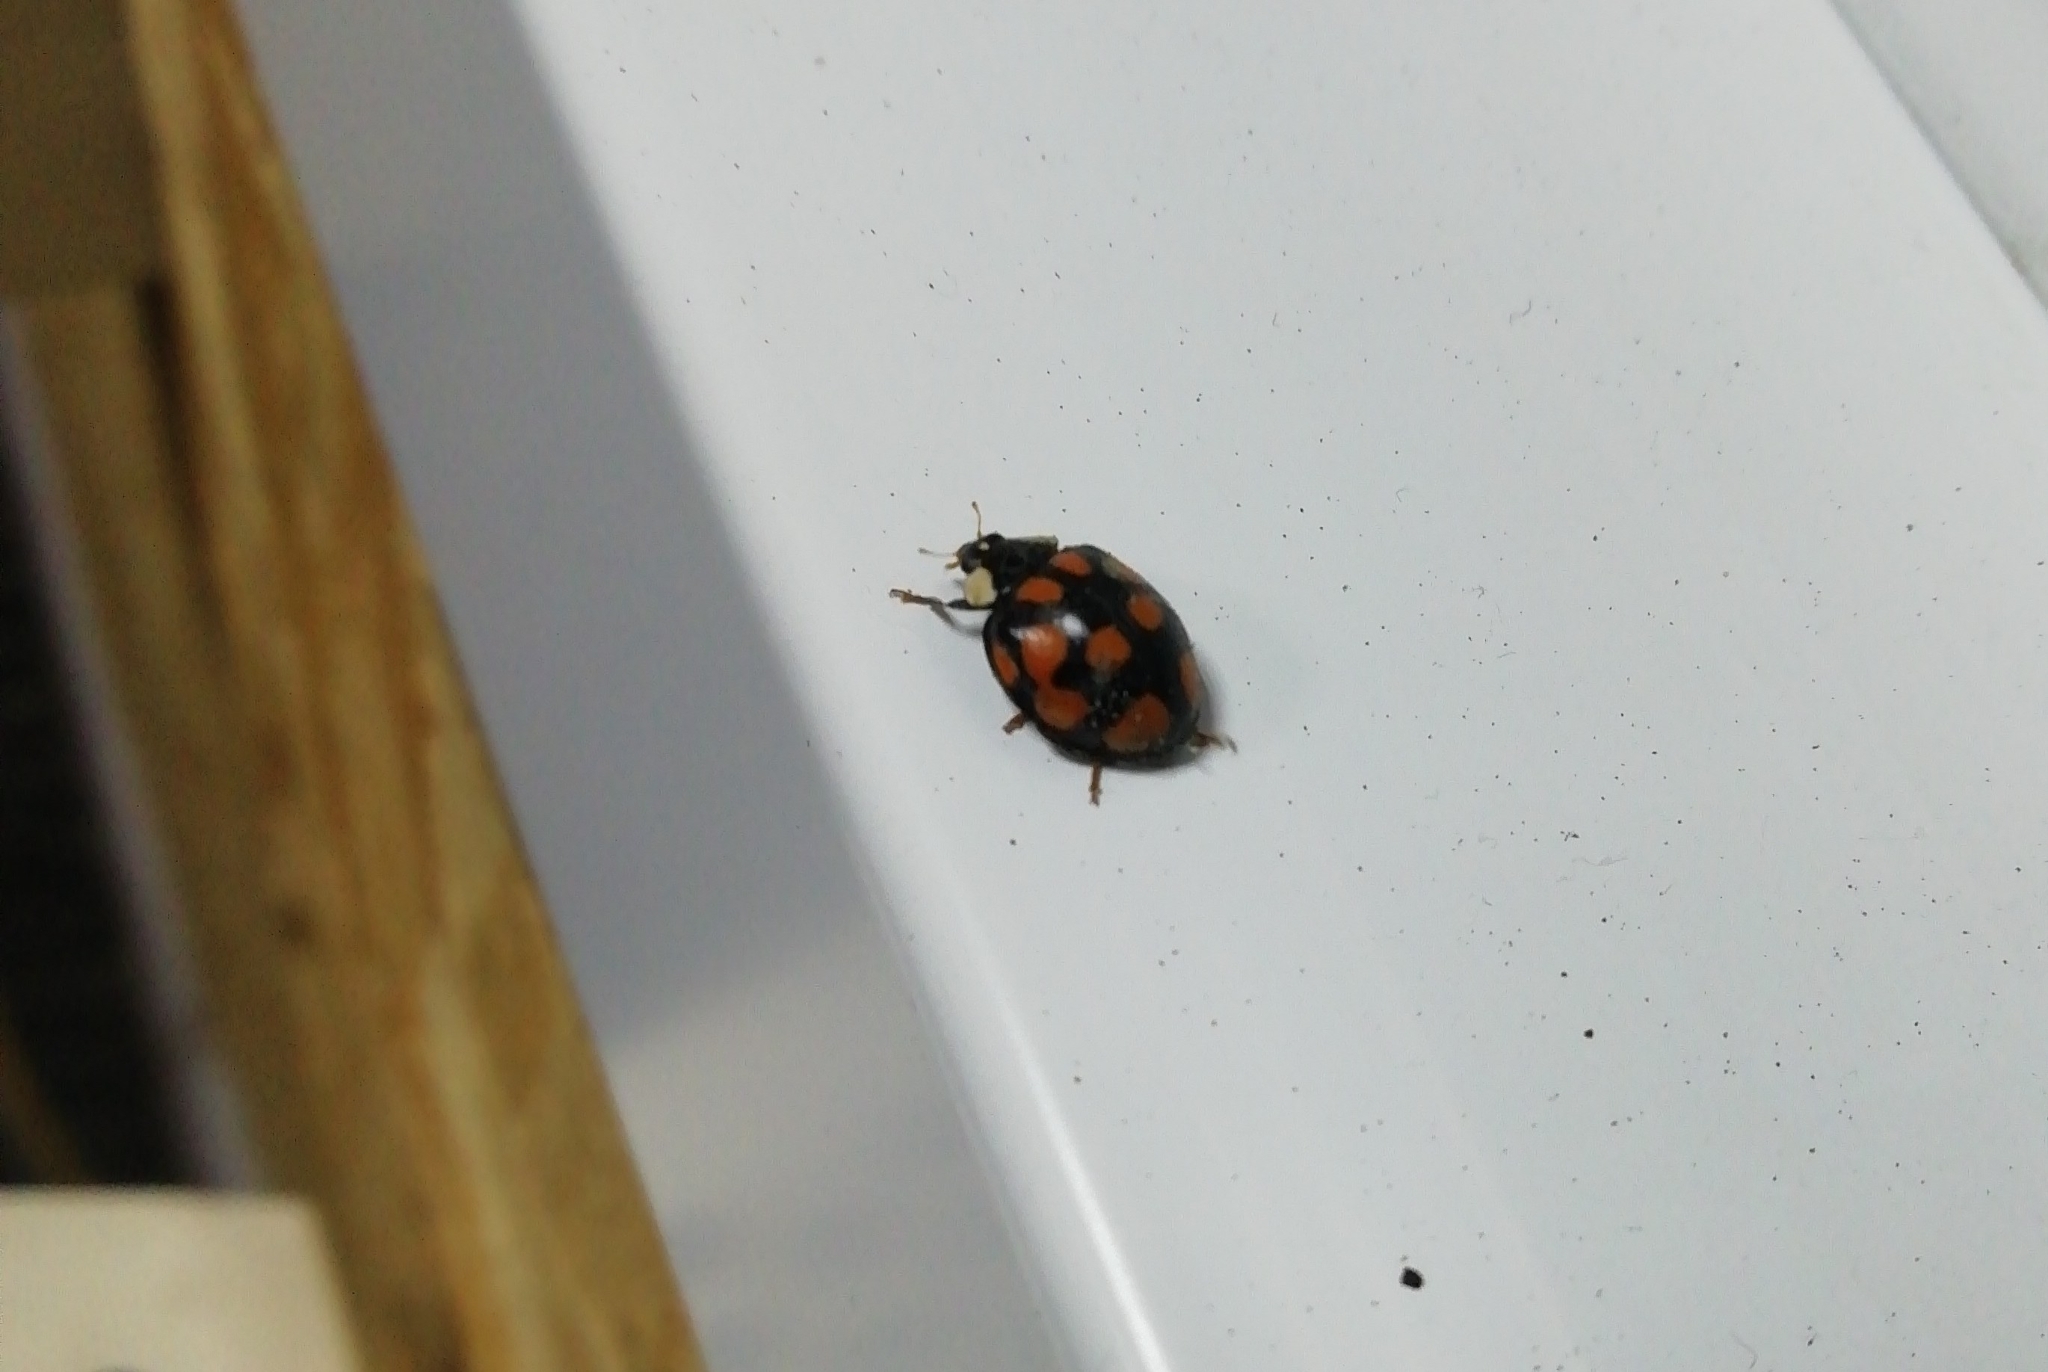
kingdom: Animalia
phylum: Arthropoda
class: Insecta
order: Coleoptera
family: Coccinellidae
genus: Harmonia
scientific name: Harmonia axyridis
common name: Harlequin ladybird
